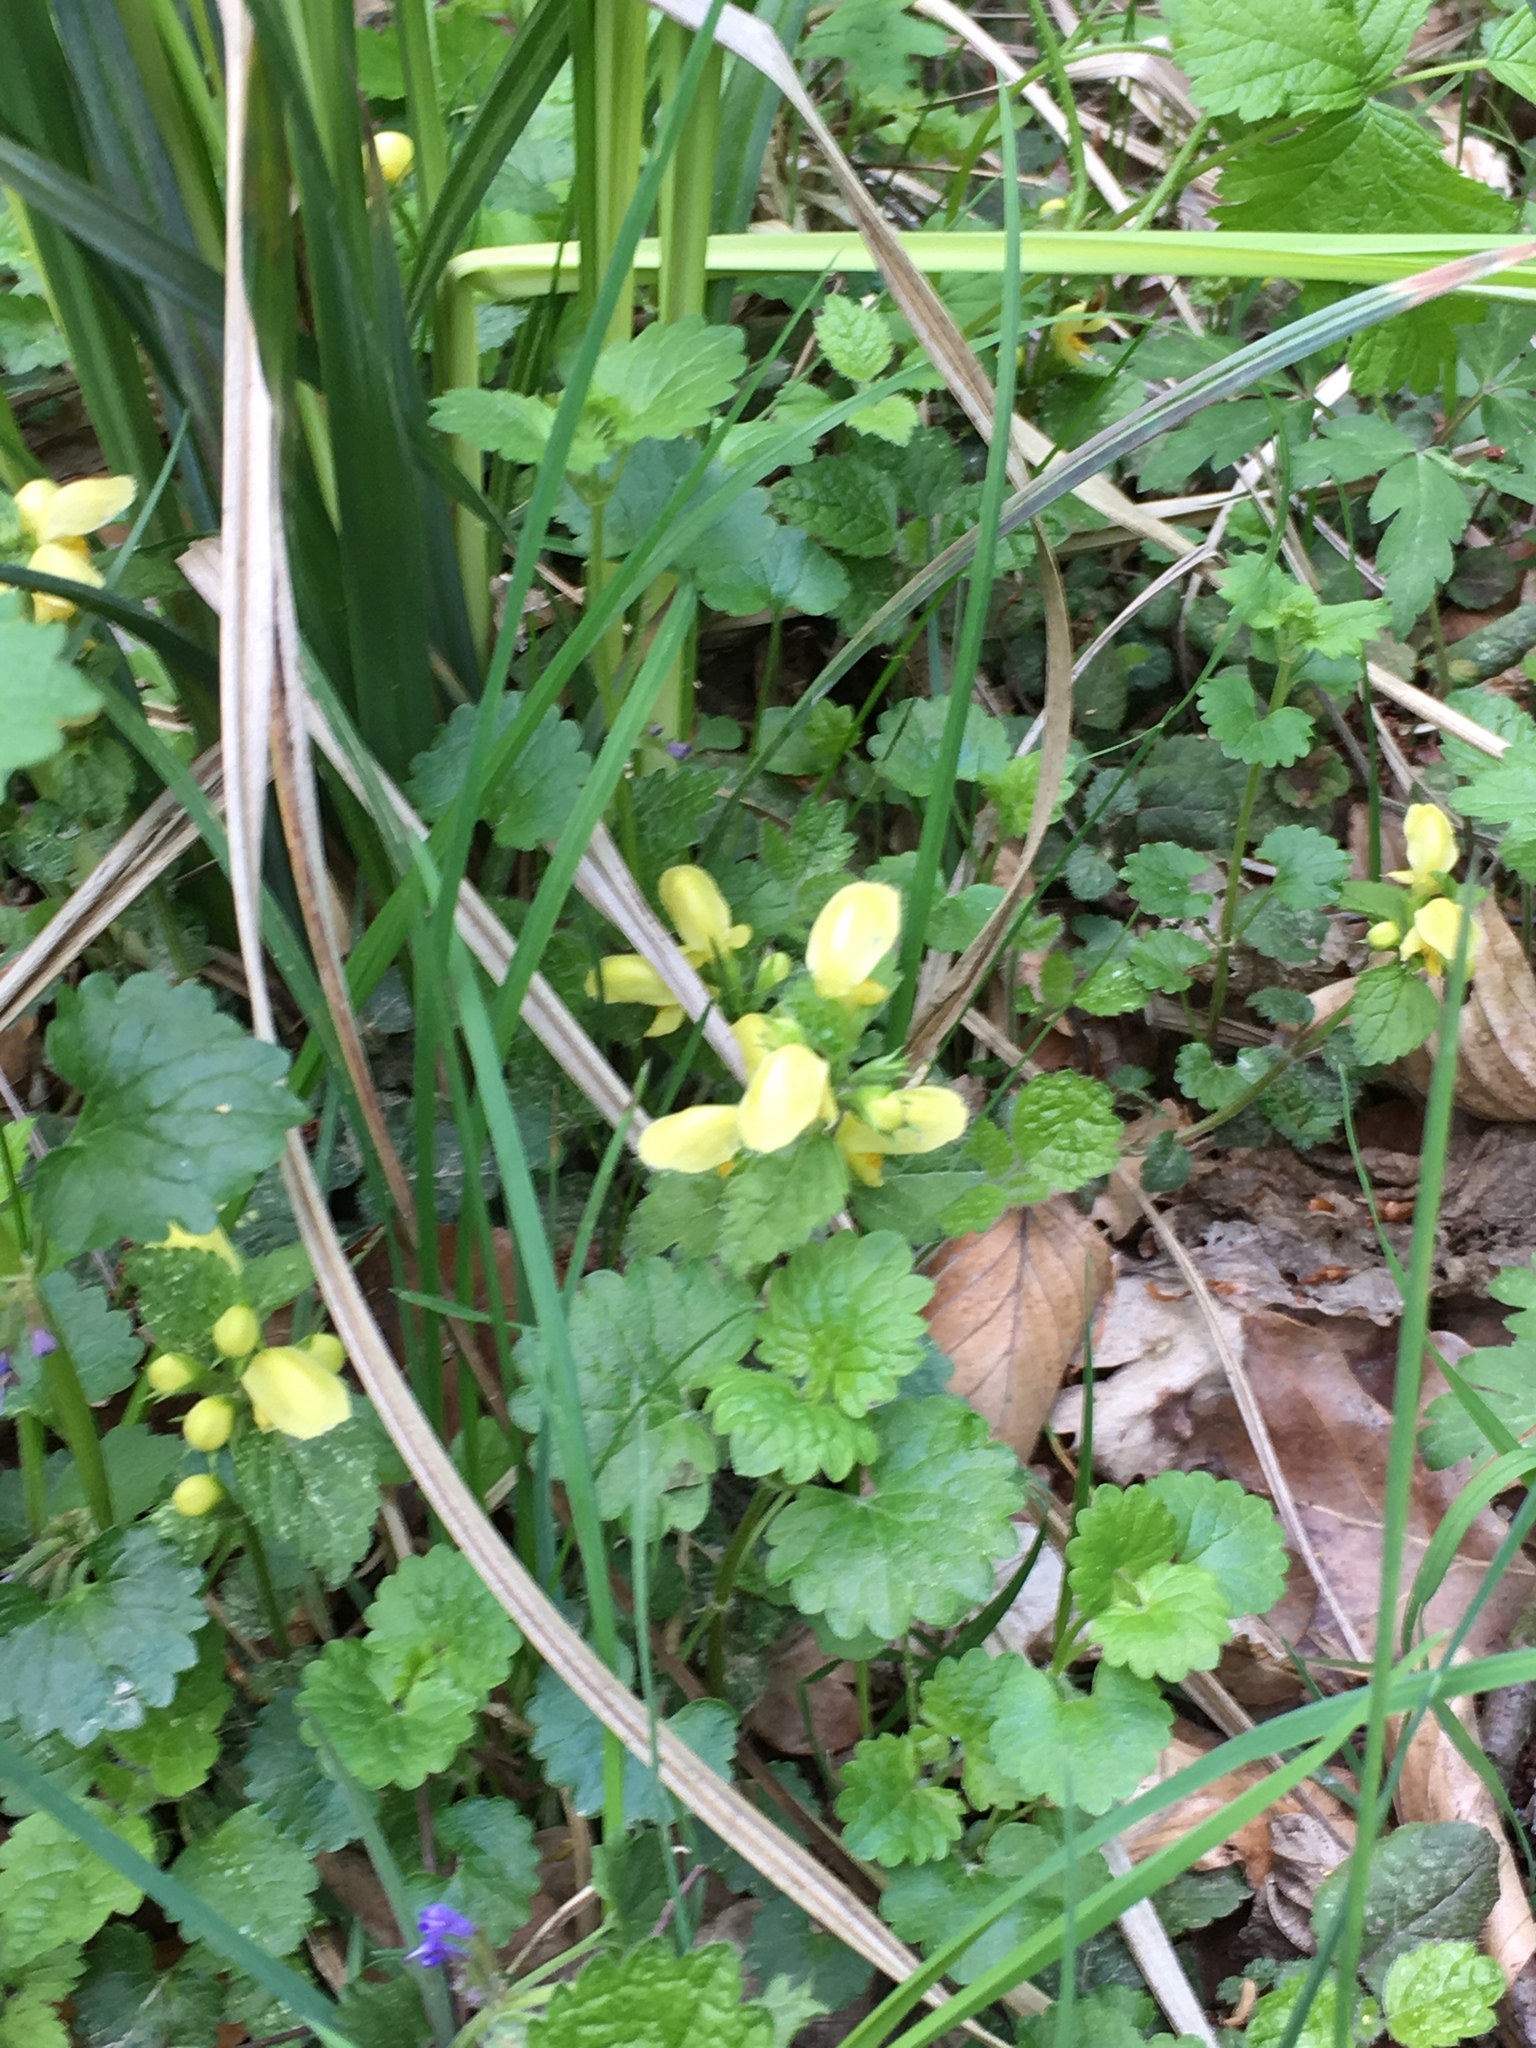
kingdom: Plantae
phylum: Tracheophyta
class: Magnoliopsida
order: Lamiales
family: Lamiaceae
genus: Lamium
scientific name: Lamium galeobdolon
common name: Yellow archangel
